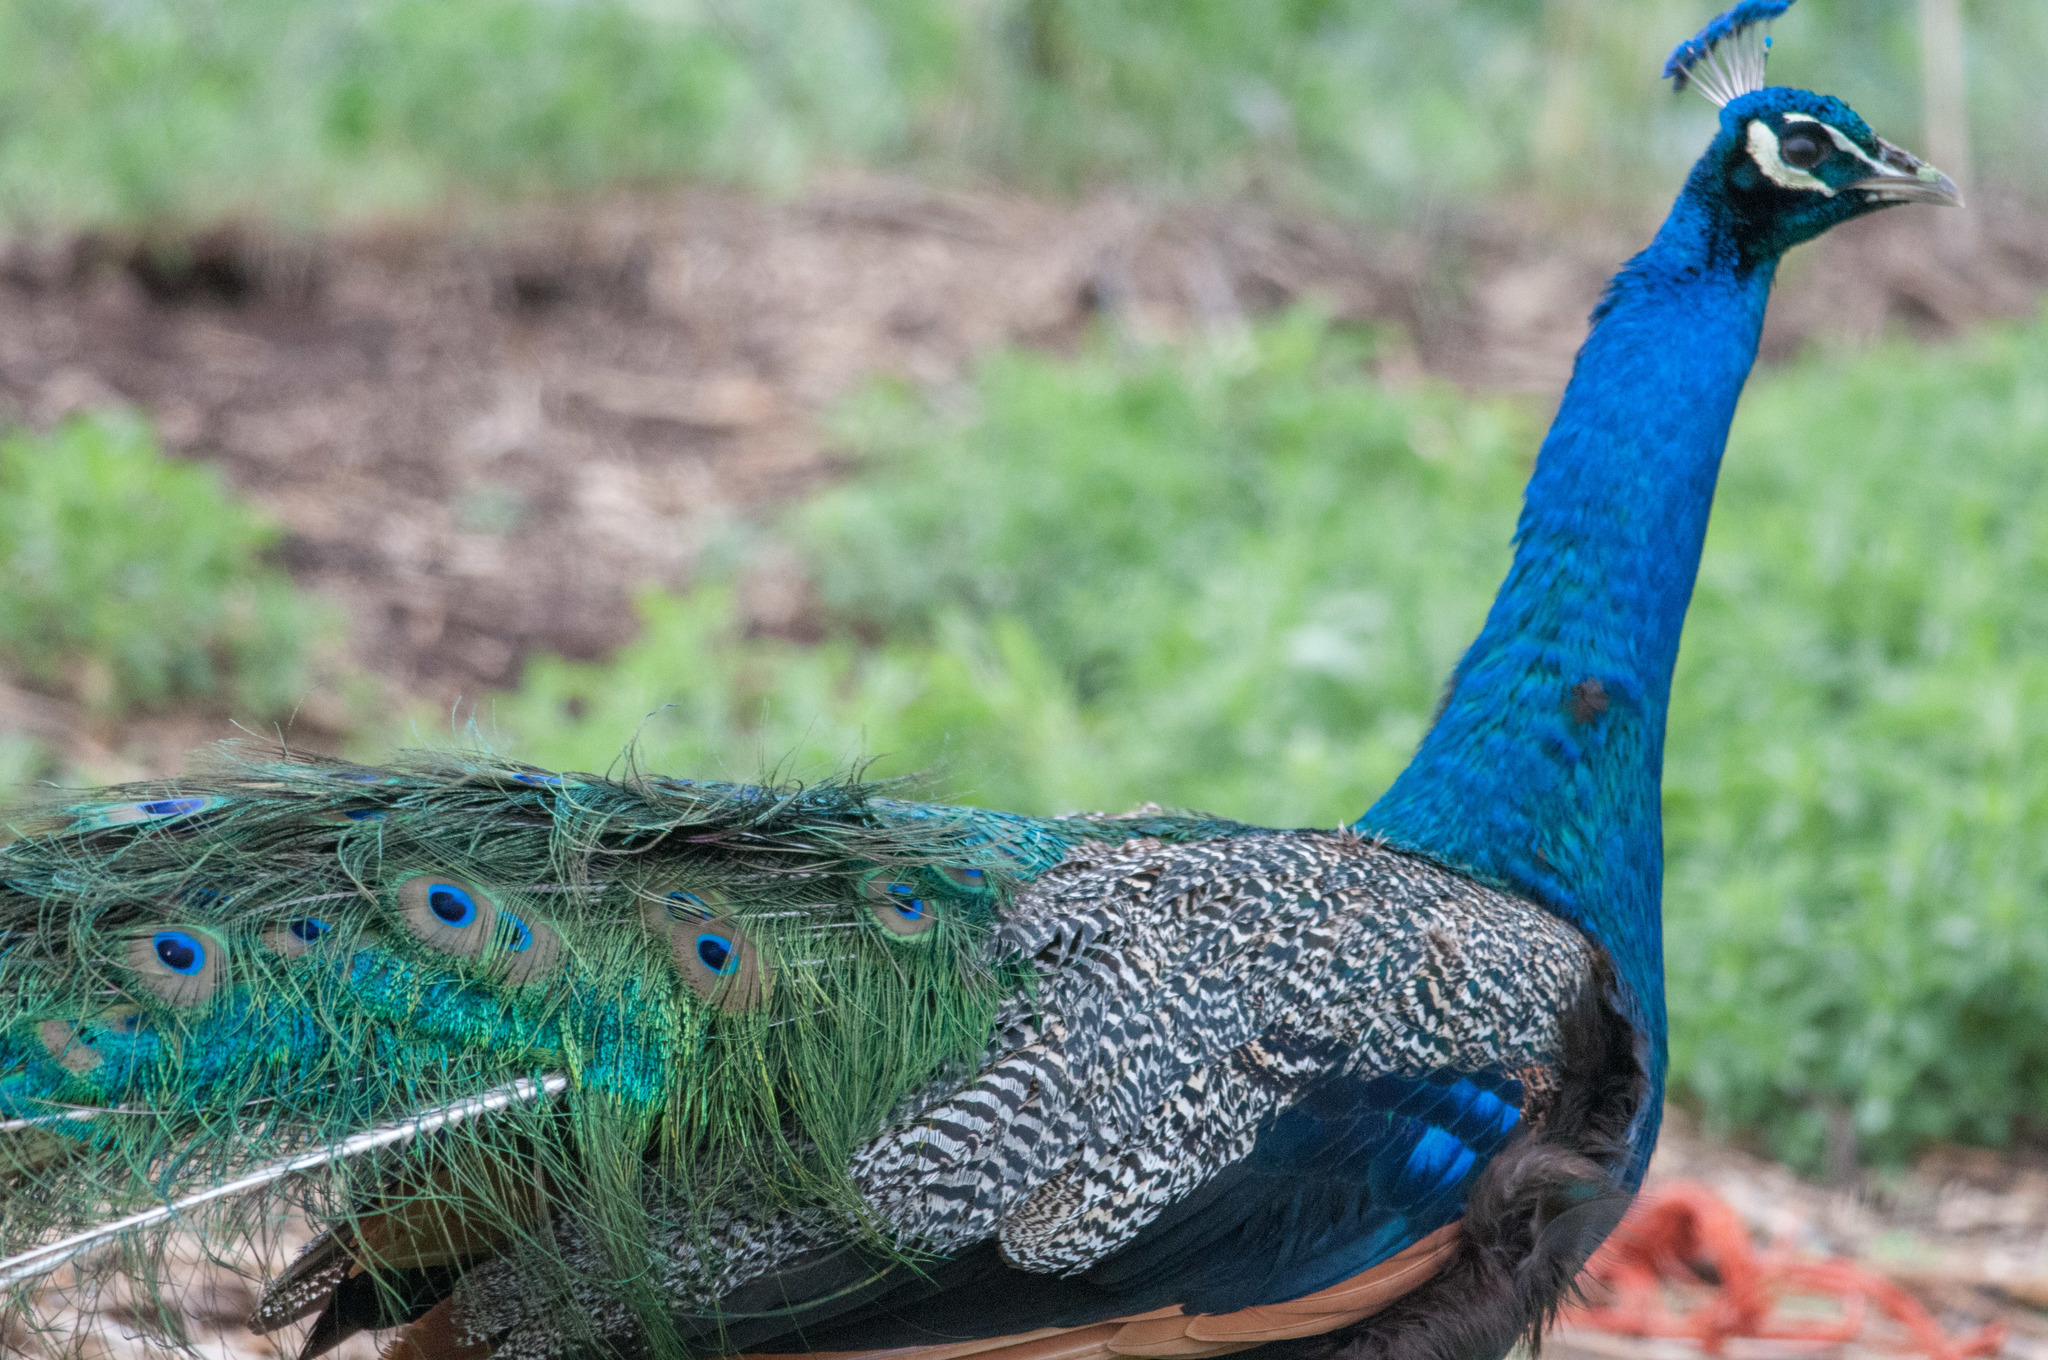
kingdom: Animalia
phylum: Chordata
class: Aves
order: Galliformes
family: Phasianidae
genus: Pavo
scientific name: Pavo cristatus
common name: Indian peafowl
